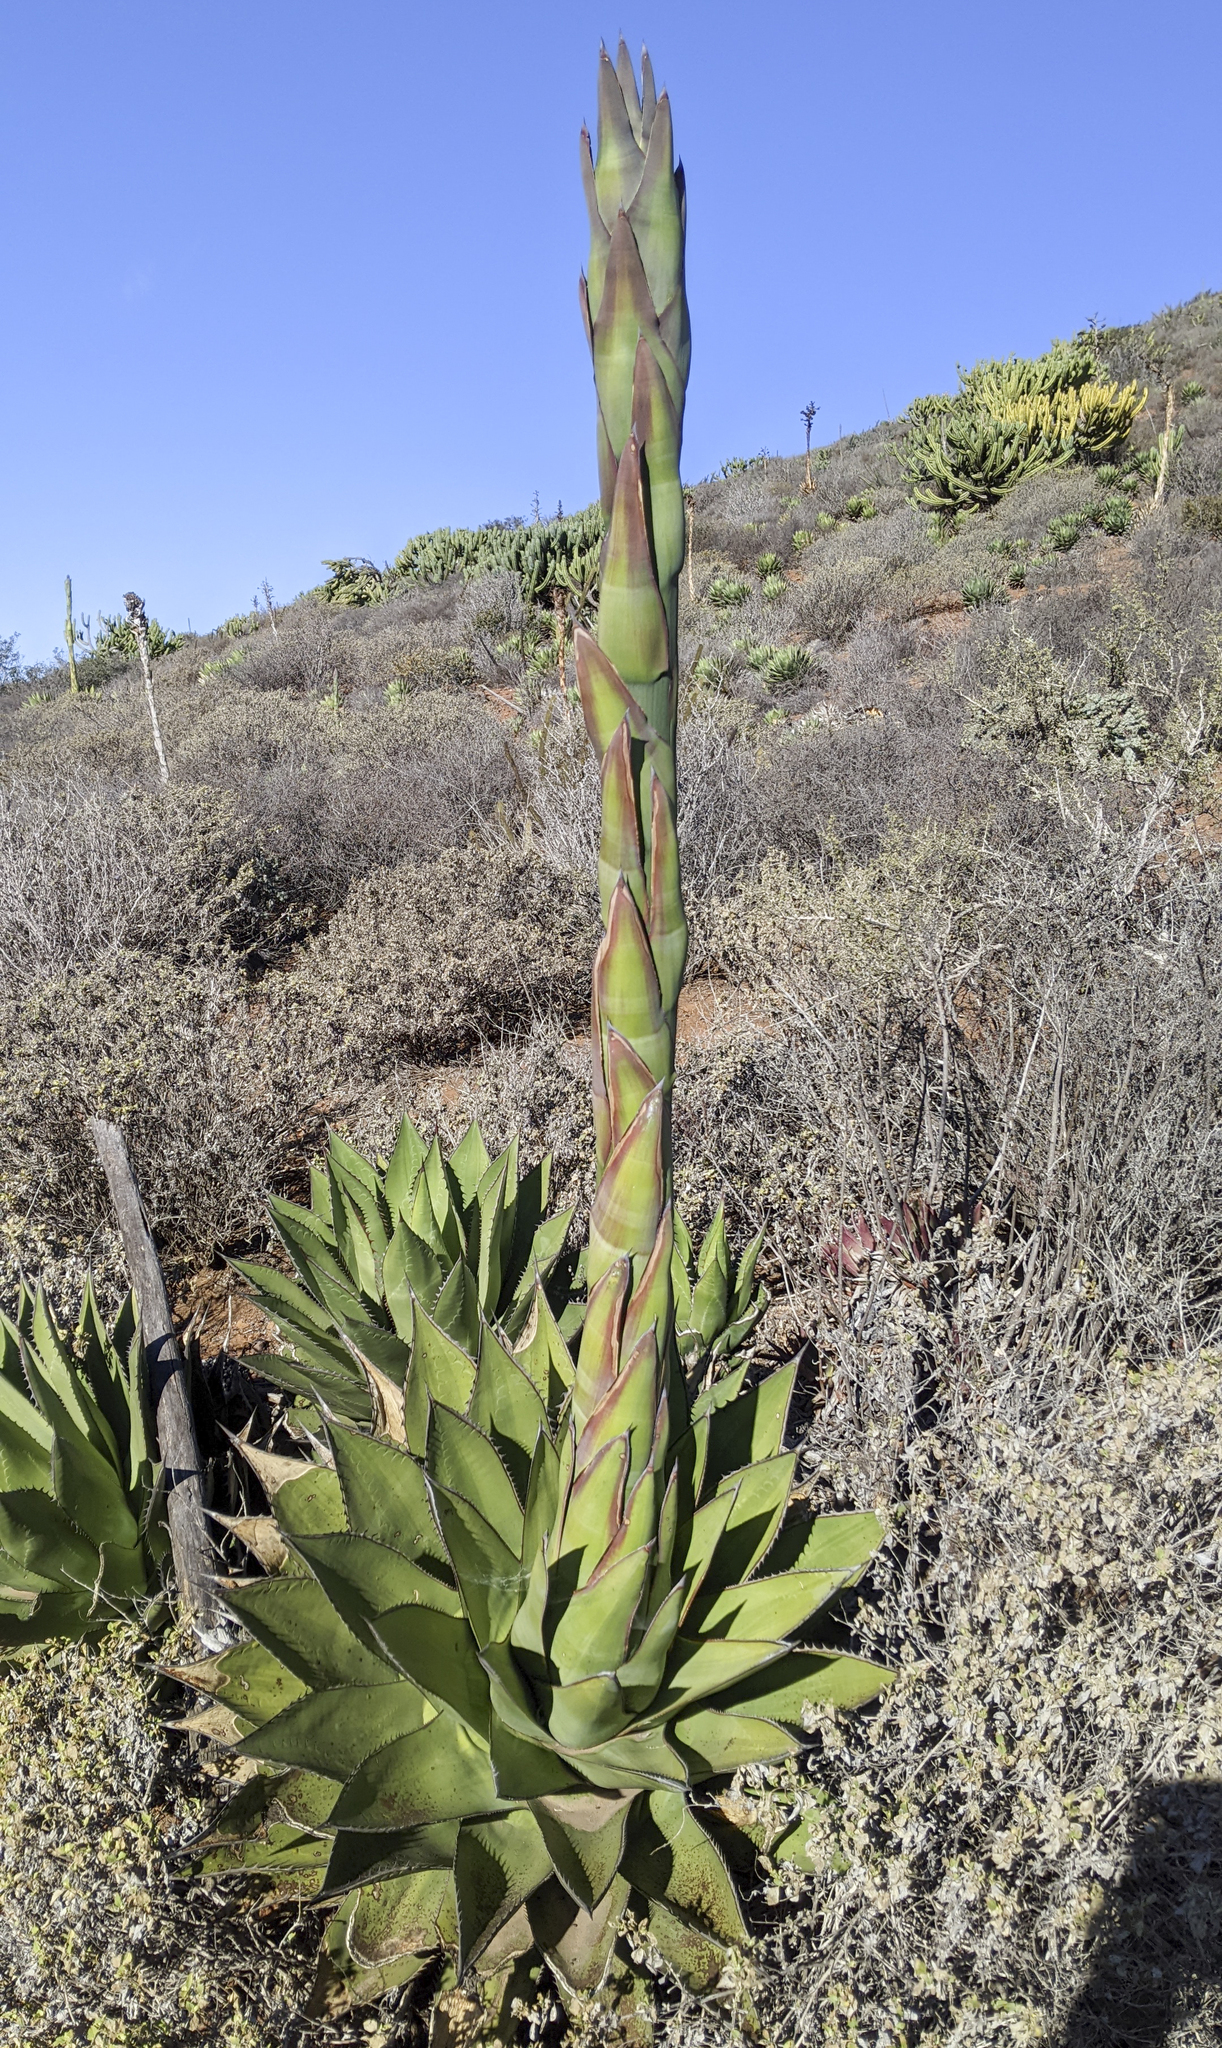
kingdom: Plantae
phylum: Tracheophyta
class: Liliopsida
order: Asparagales
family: Asparagaceae
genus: Agave
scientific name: Agave shawii
